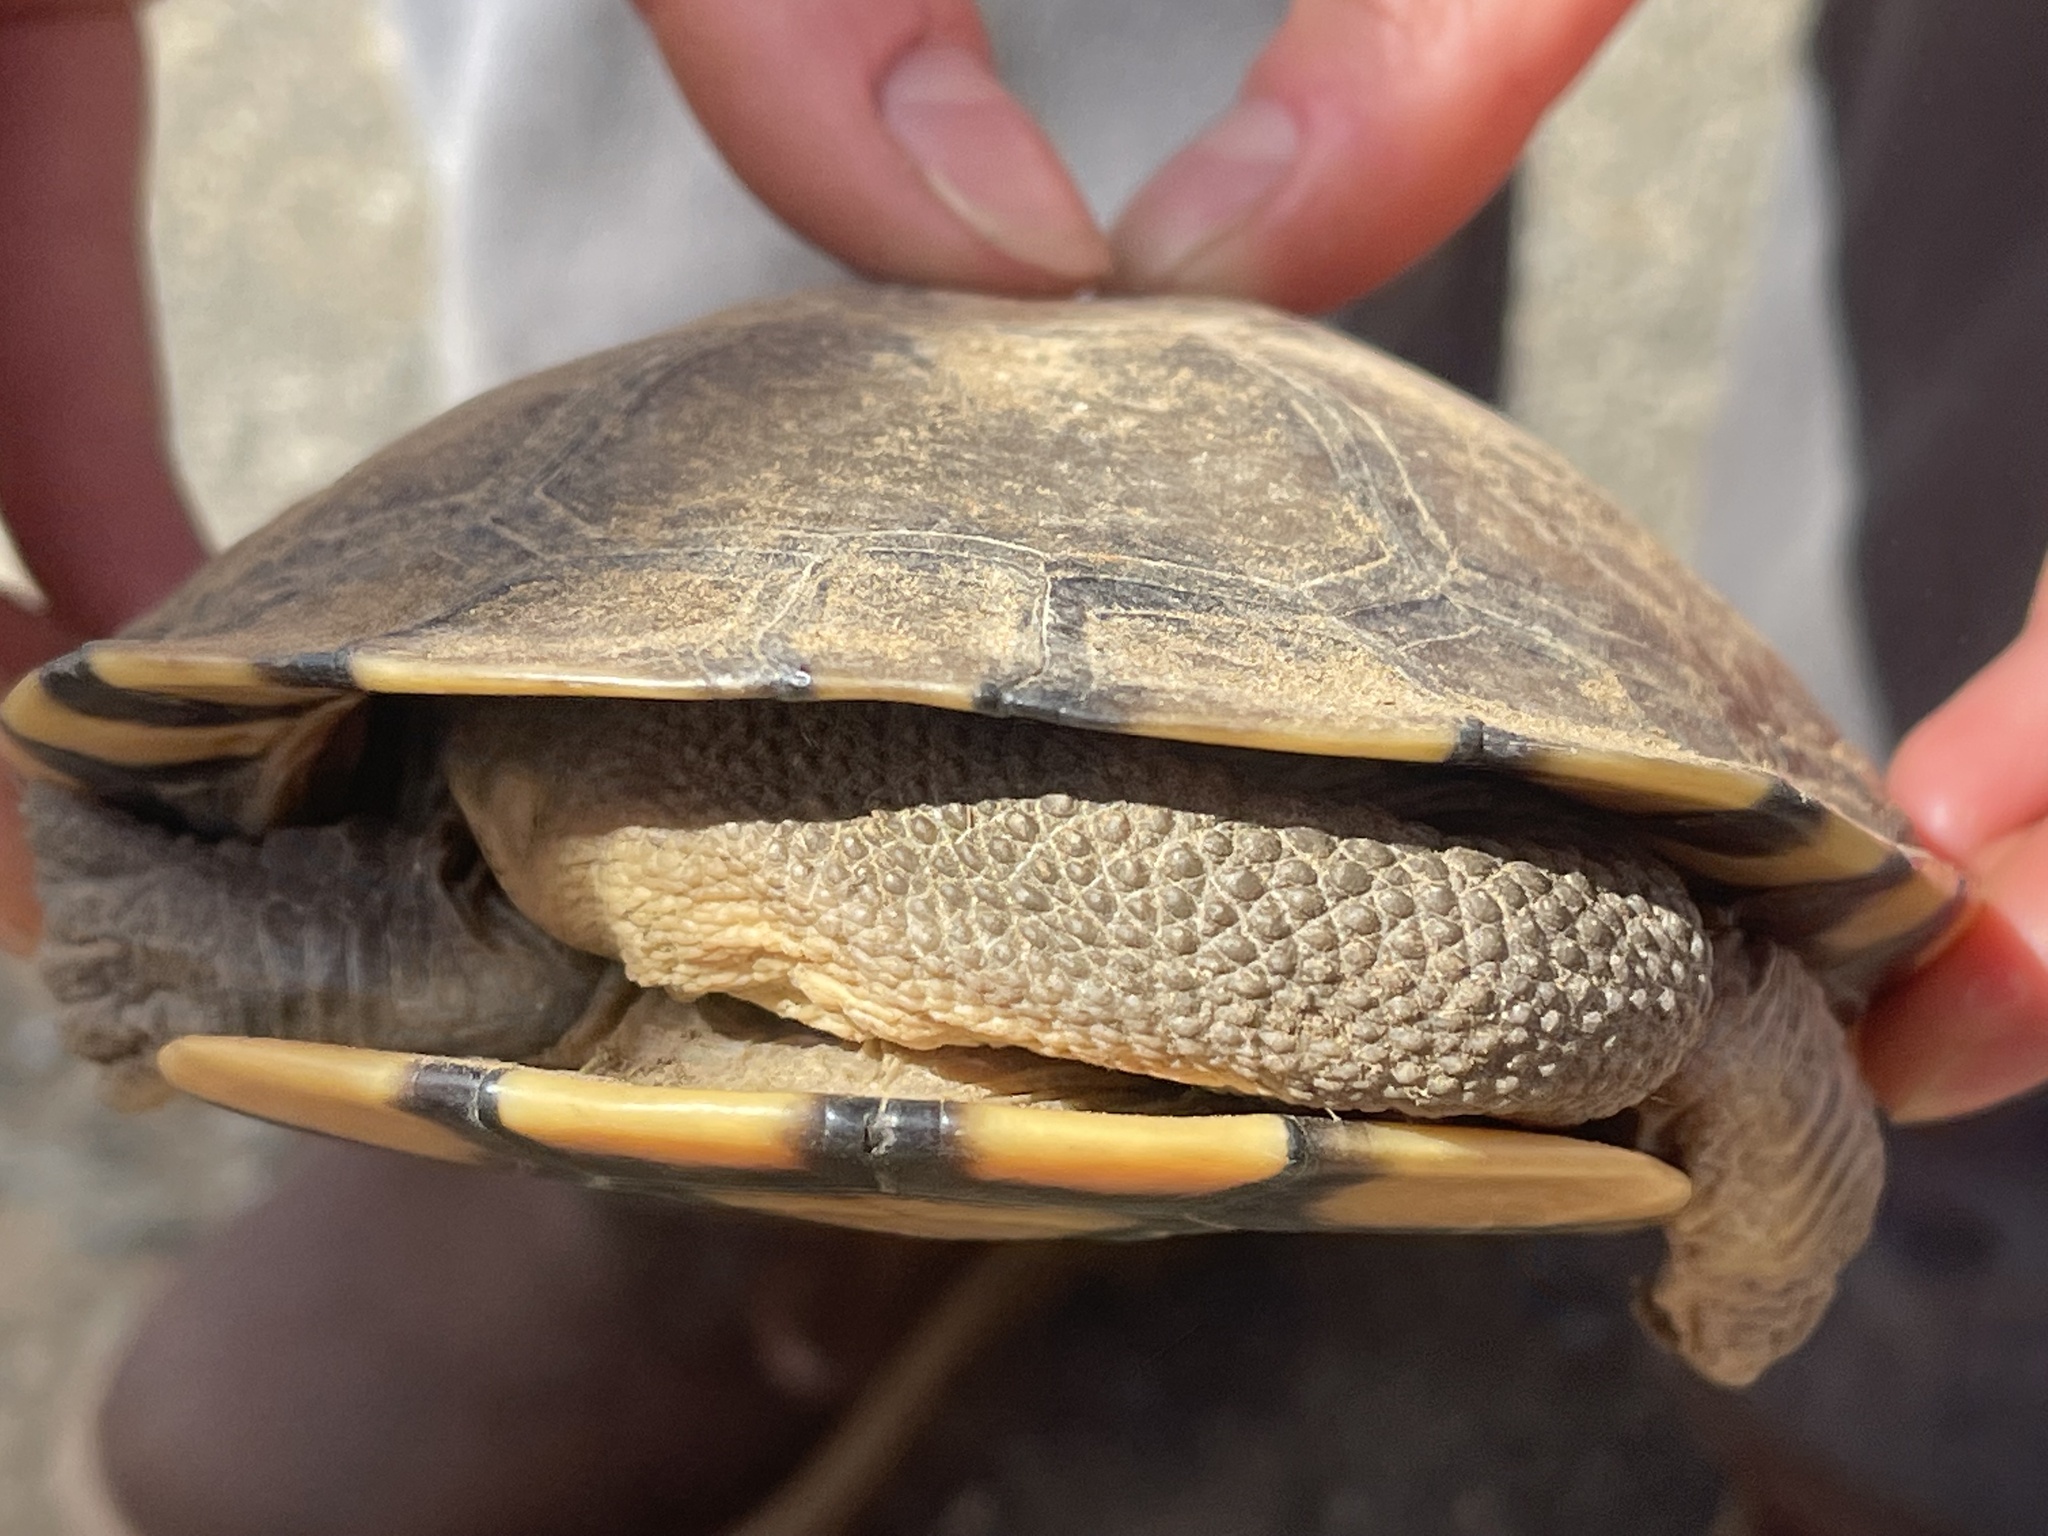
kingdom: Animalia
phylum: Chordata
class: Testudines
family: Chelidae
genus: Chelodina
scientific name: Chelodina longicollis
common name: Eastern snake-necked turtle
